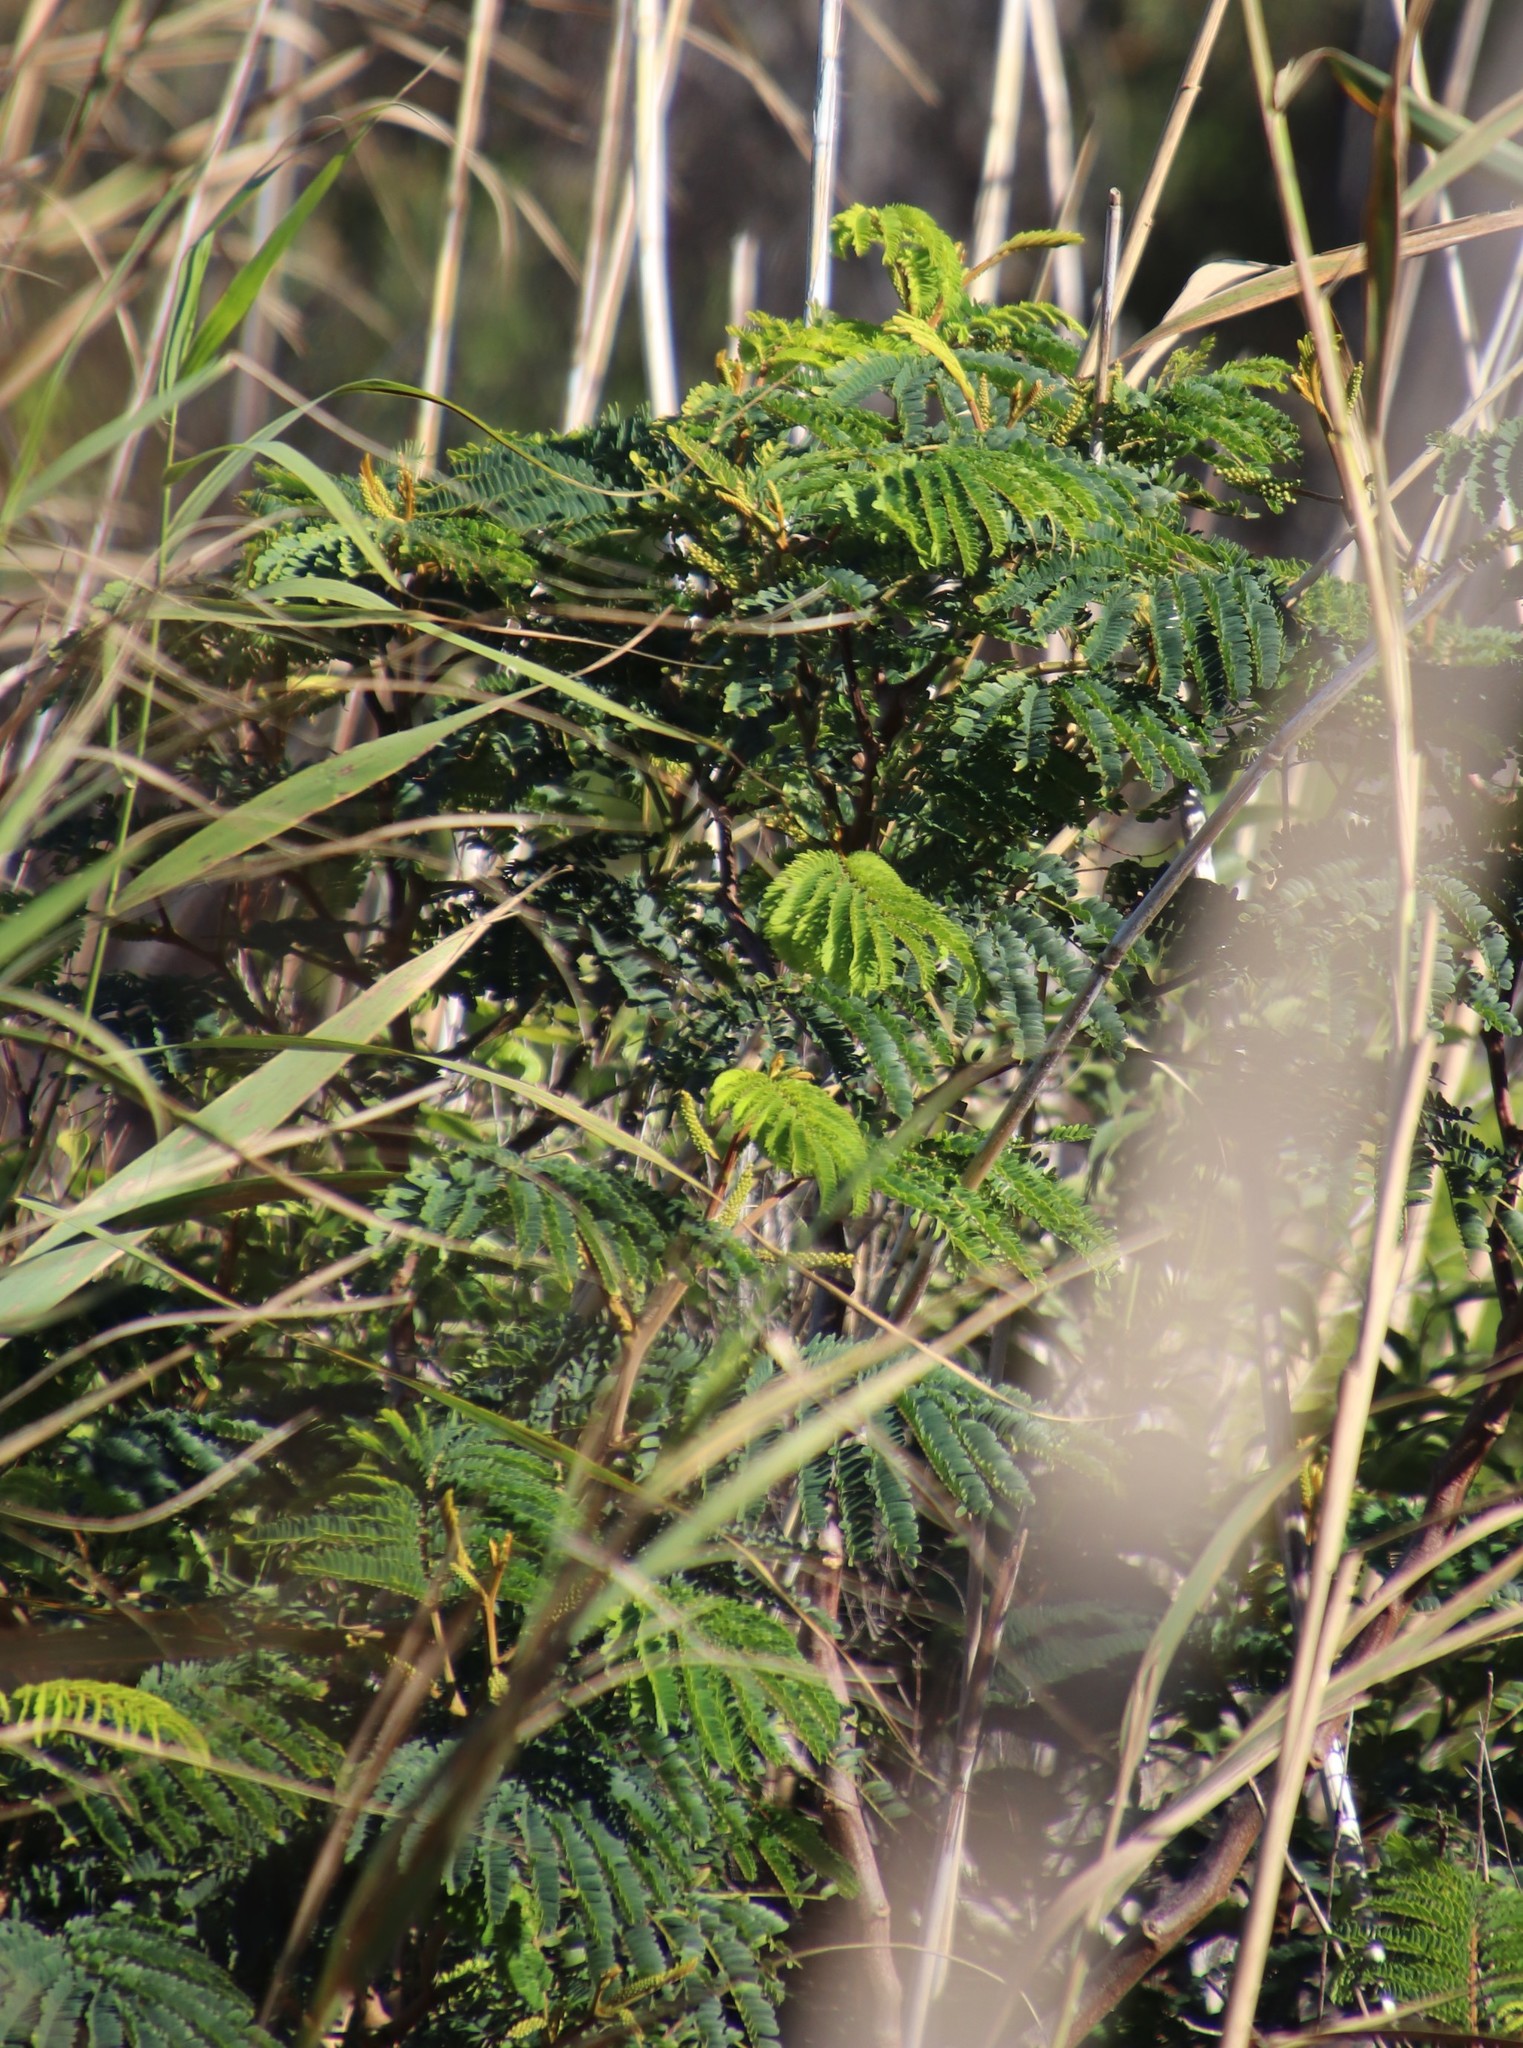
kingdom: Plantae
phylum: Tracheophyta
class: Magnoliopsida
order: Fabales
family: Fabaceae
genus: Paraserianthes
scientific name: Paraserianthes lophantha
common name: Plume albizia
